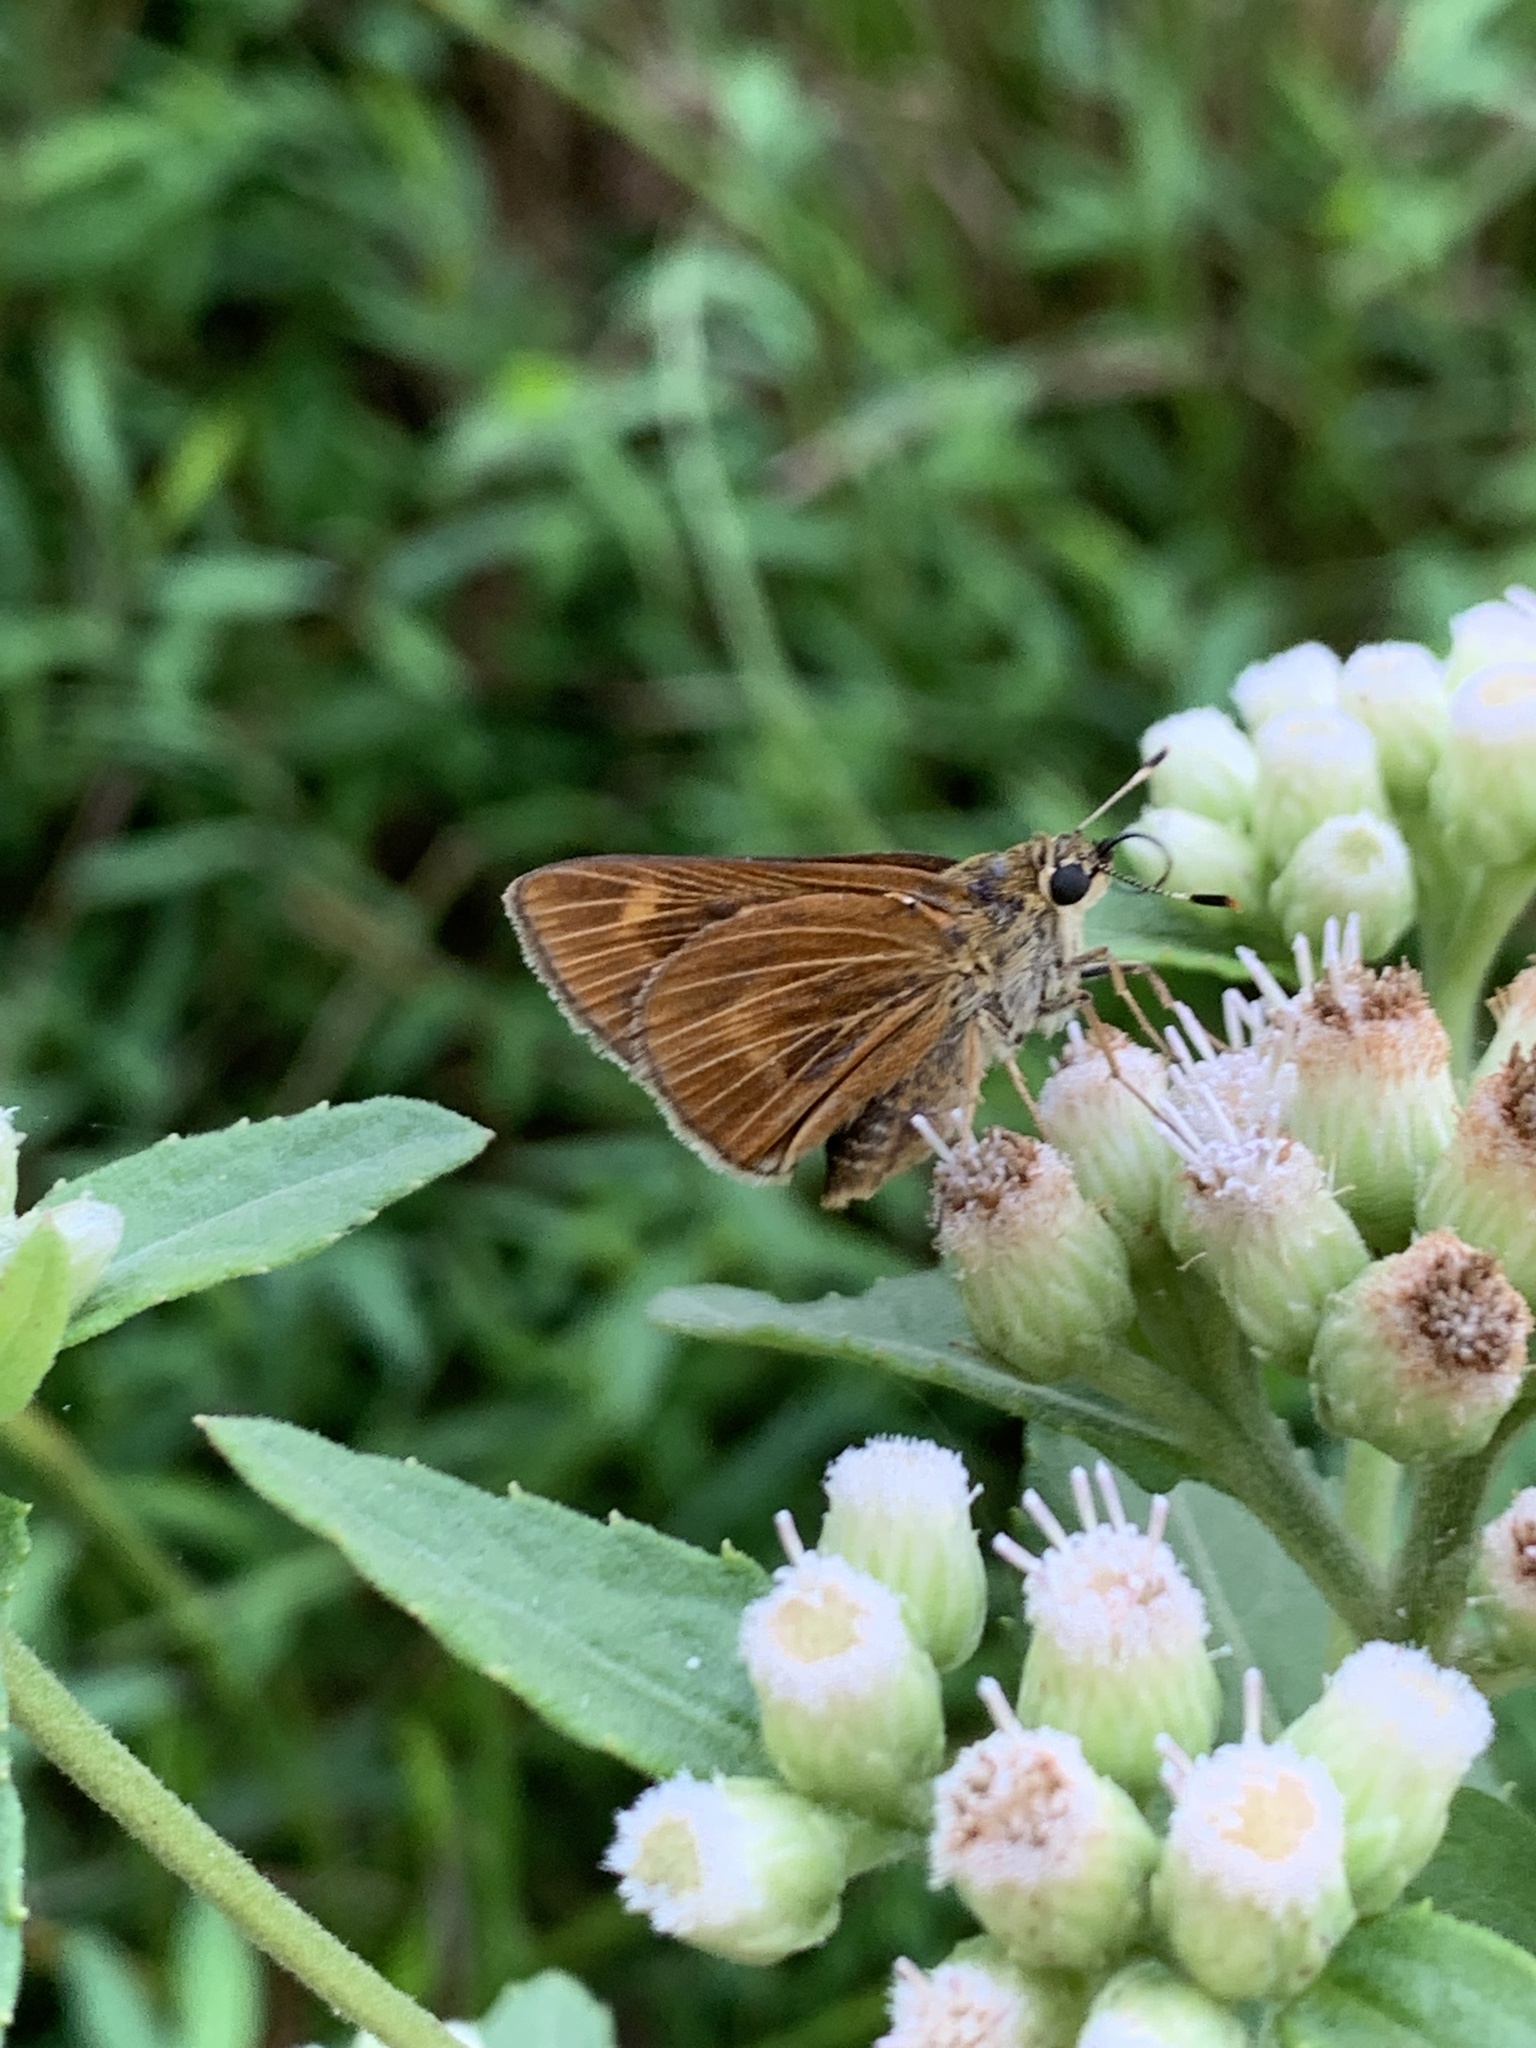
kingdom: Animalia
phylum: Arthropoda
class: Insecta
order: Lepidoptera
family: Hesperiidae
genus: Problema
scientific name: Problema byssus
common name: Byssus skipper
